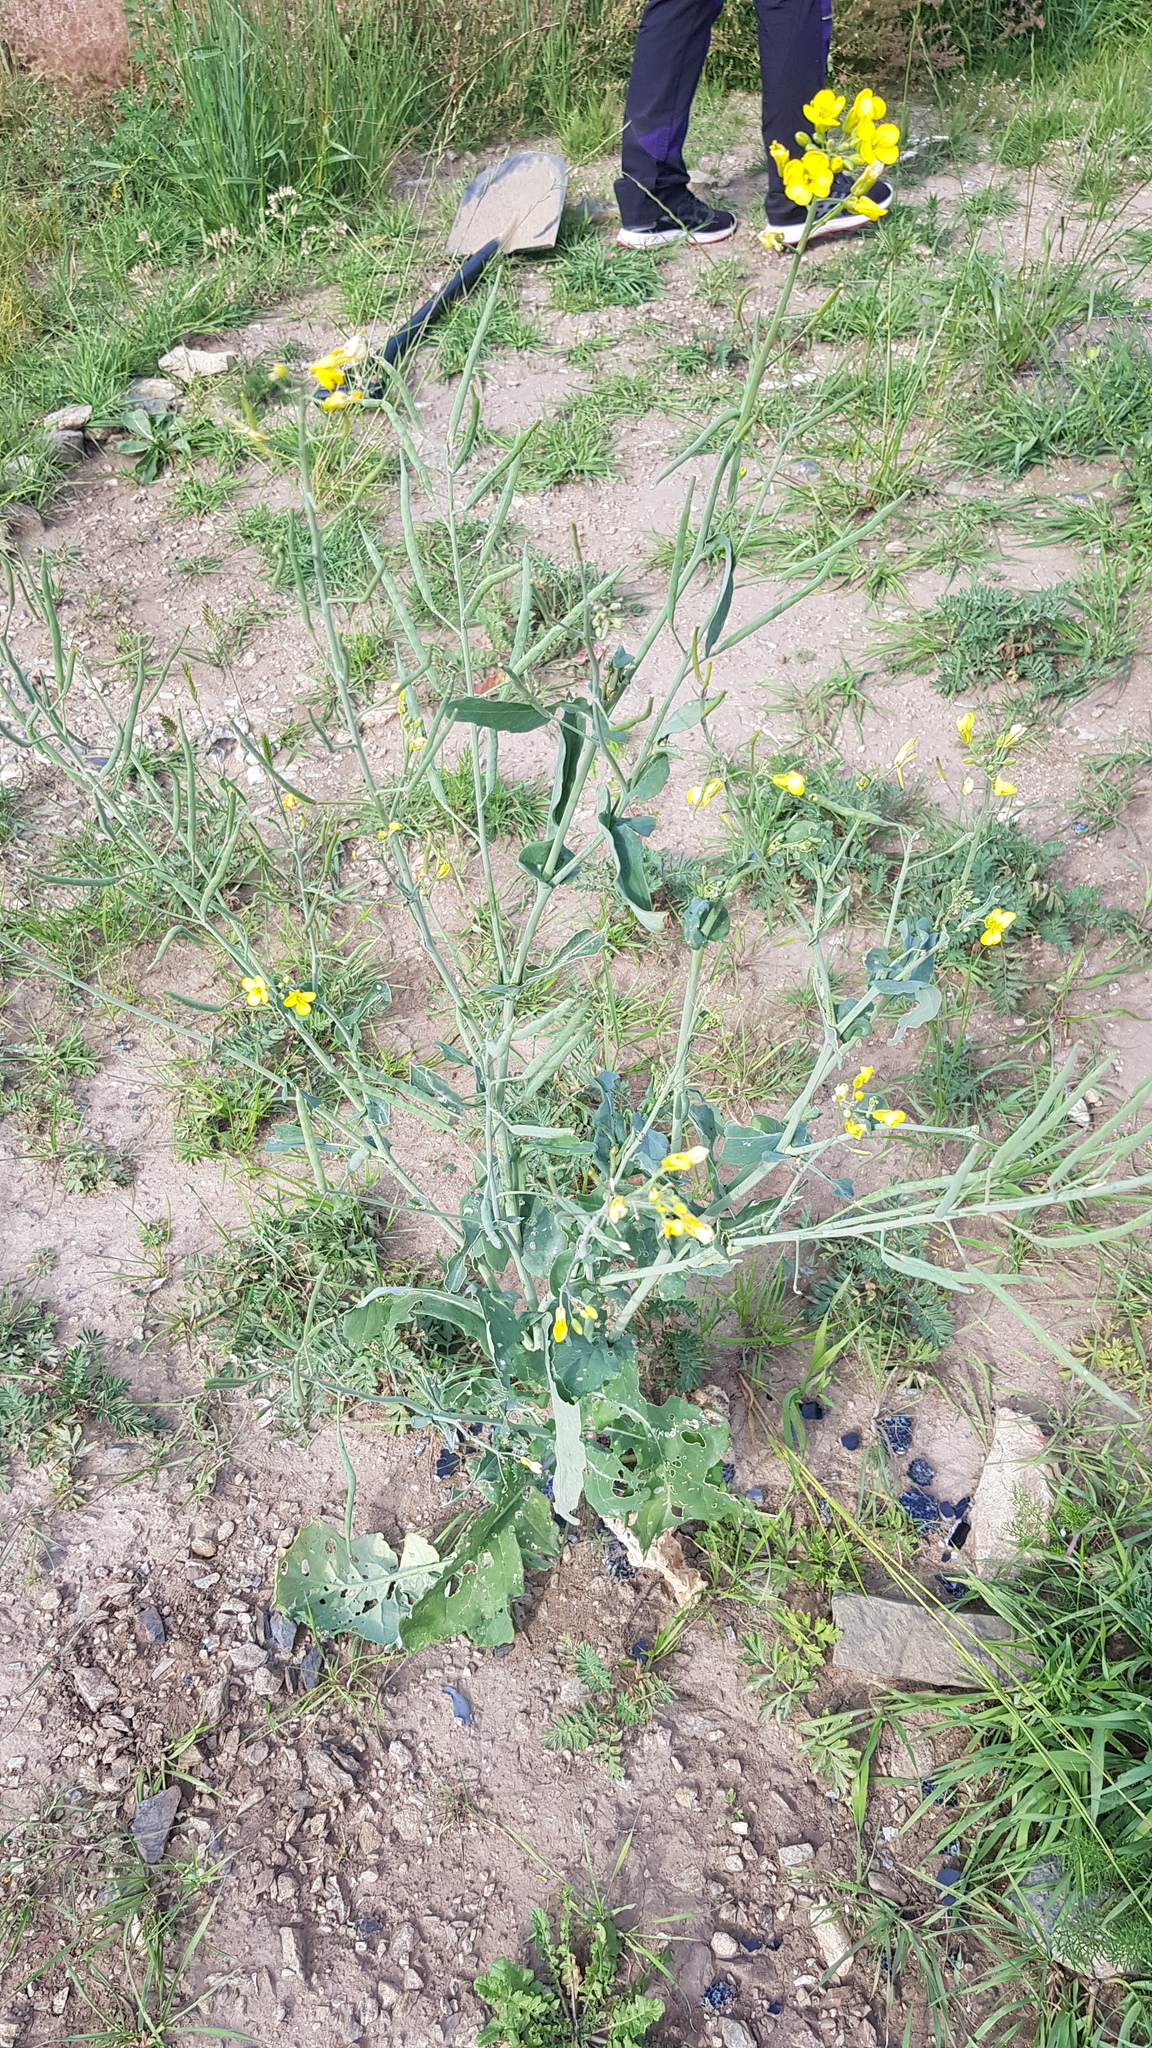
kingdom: Plantae
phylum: Tracheophyta
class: Magnoliopsida
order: Brassicales
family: Brassicaceae
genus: Brassica
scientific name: Brassica napus
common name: Rape
